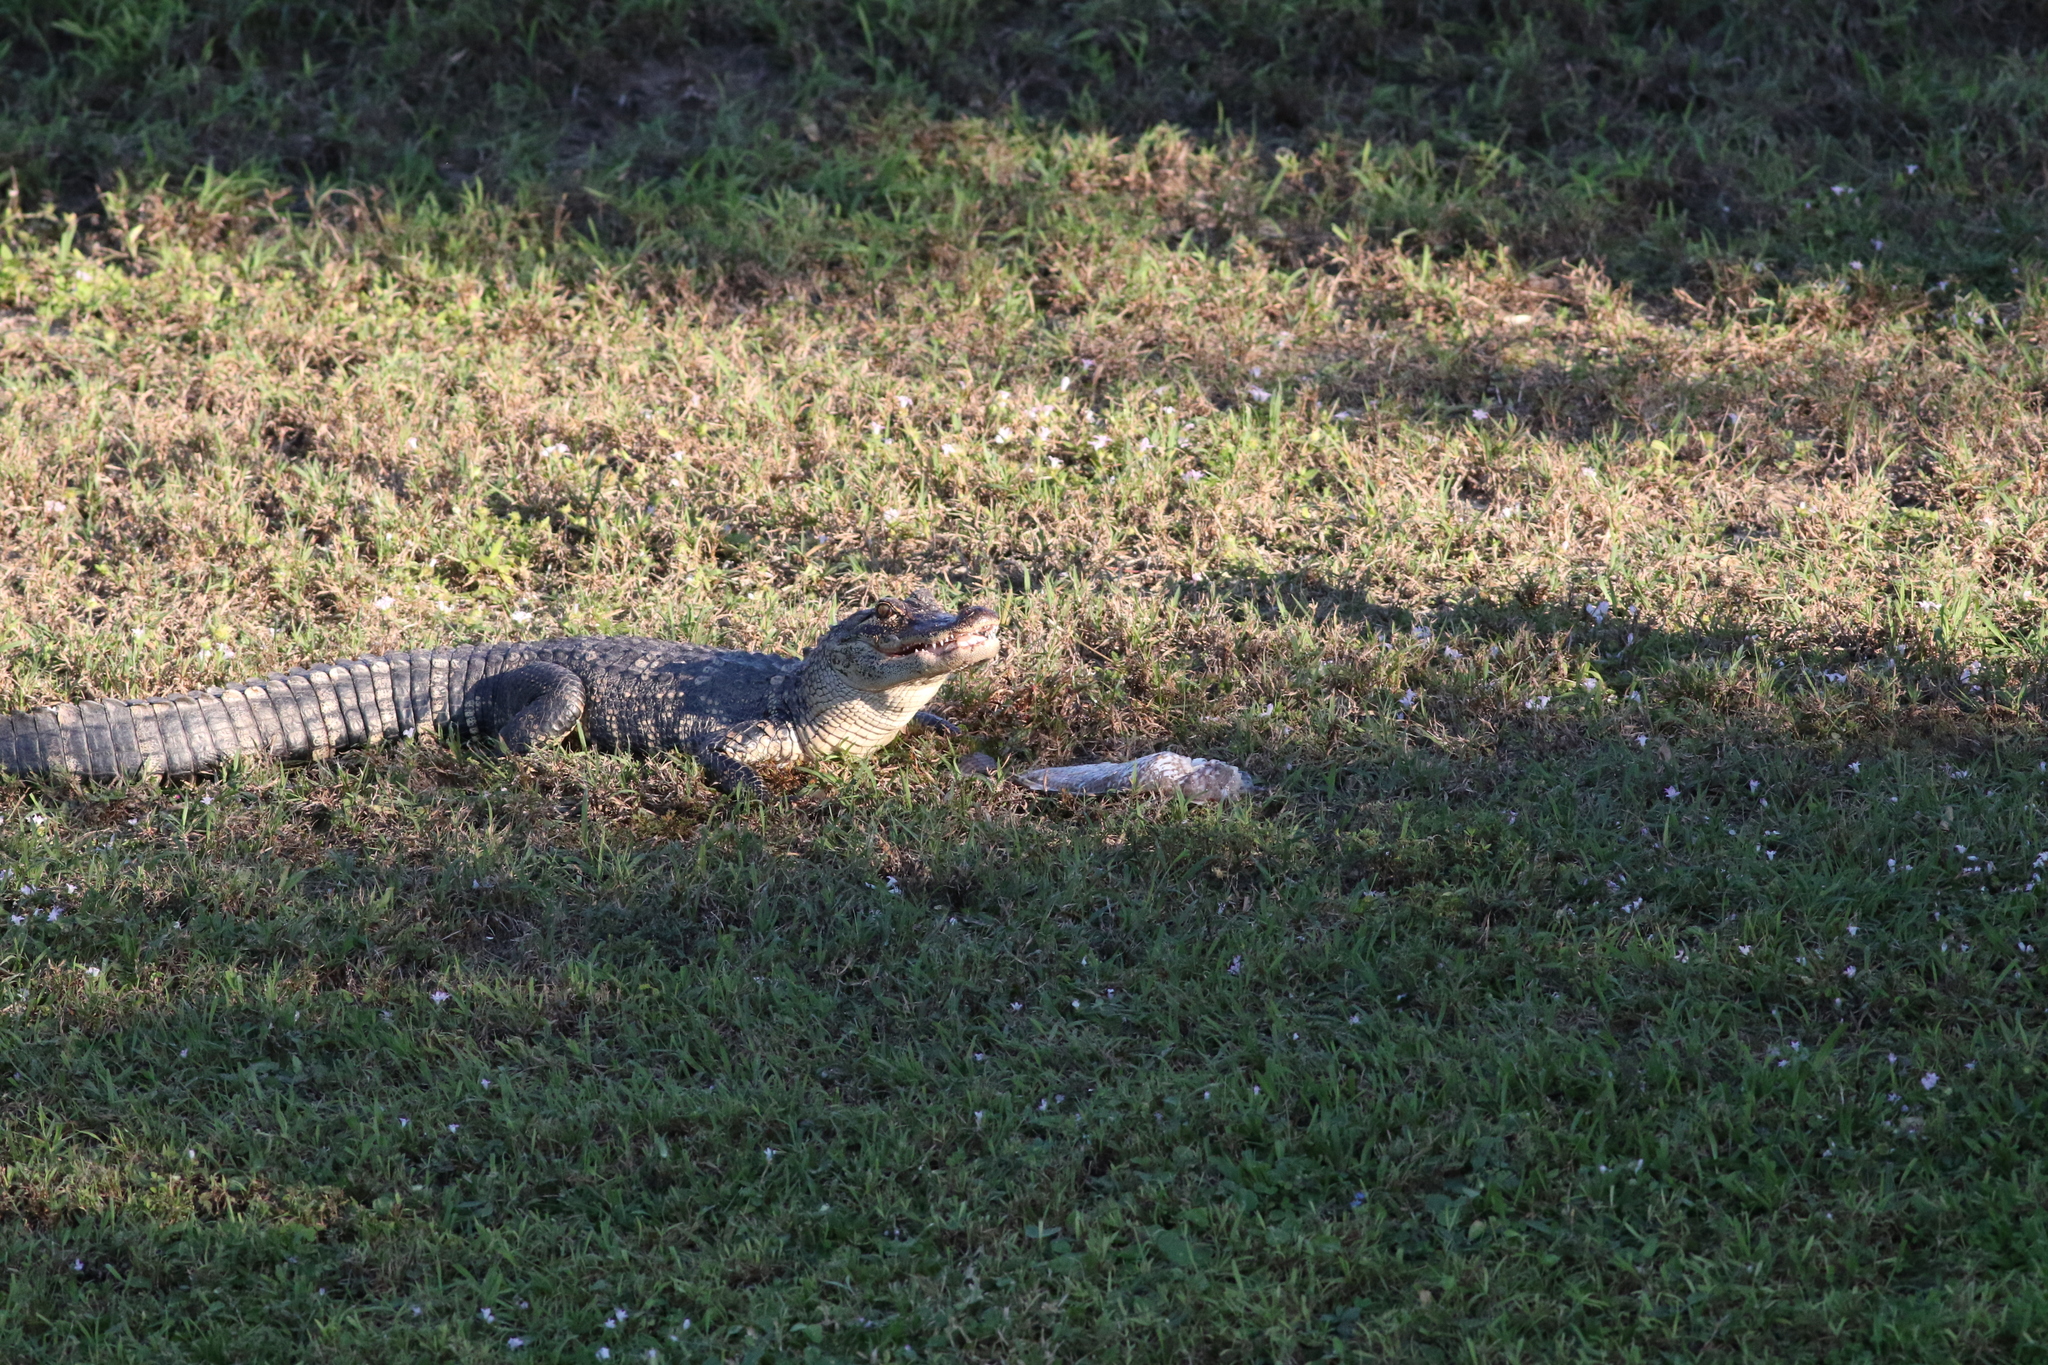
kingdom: Animalia
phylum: Chordata
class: Crocodylia
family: Alligatoridae
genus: Alligator
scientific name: Alligator mississippiensis
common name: American alligator
